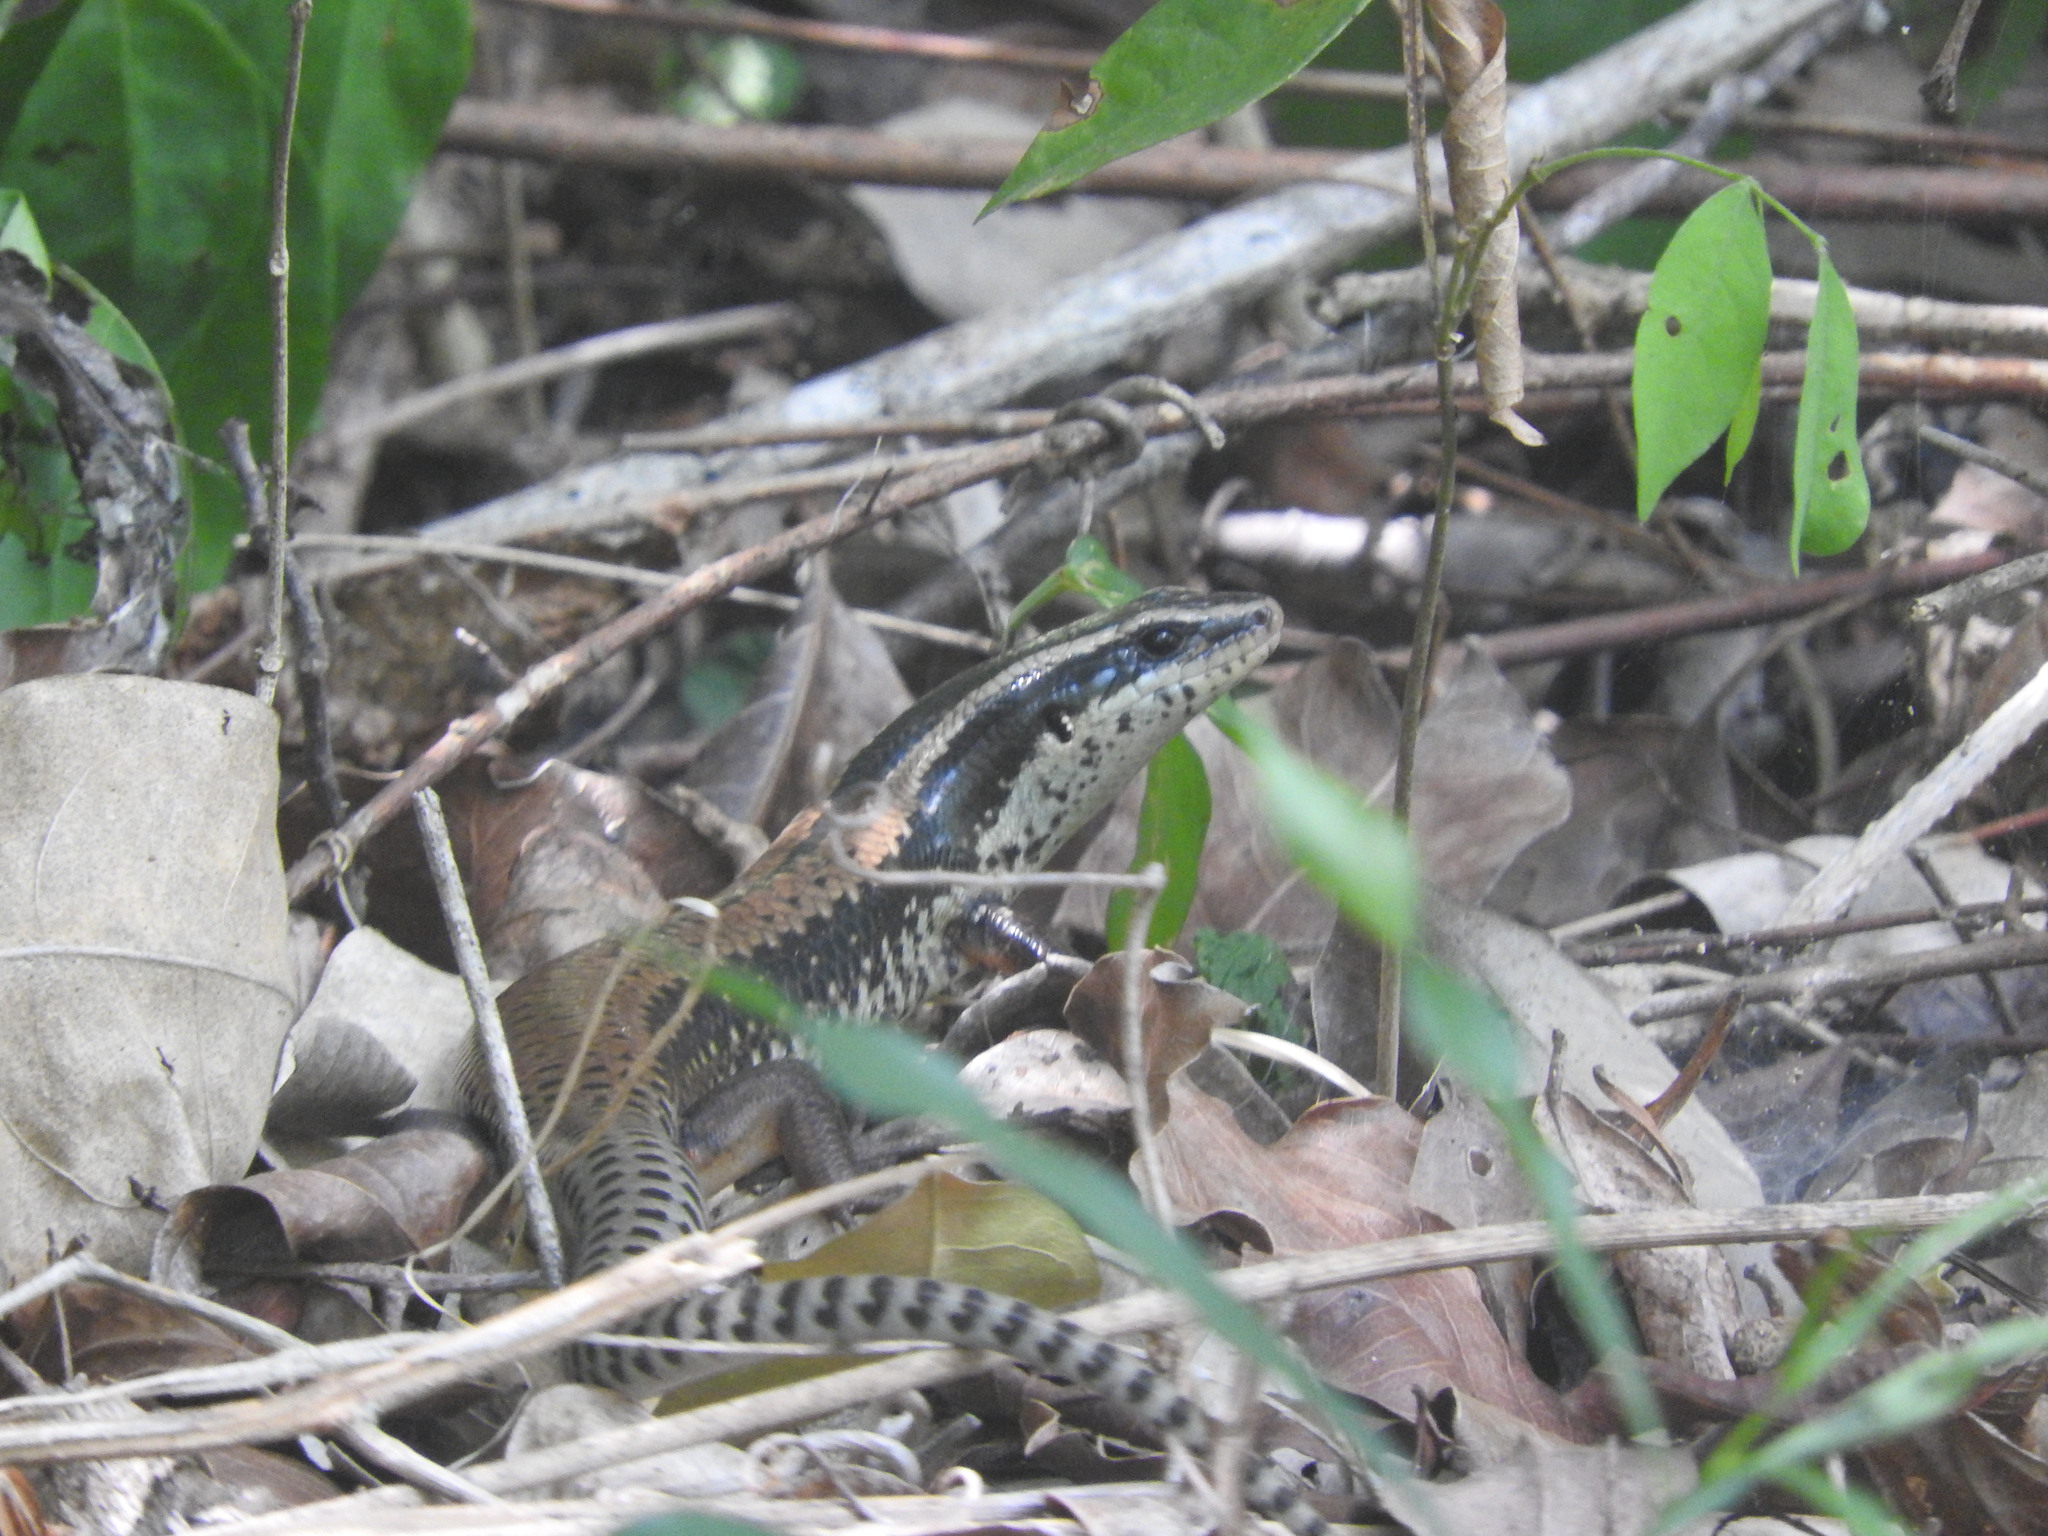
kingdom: Animalia
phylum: Chordata
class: Squamata
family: Scincidae
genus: Mesoscincus
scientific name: Mesoscincus schwartzei
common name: Mayan black-headed skink
